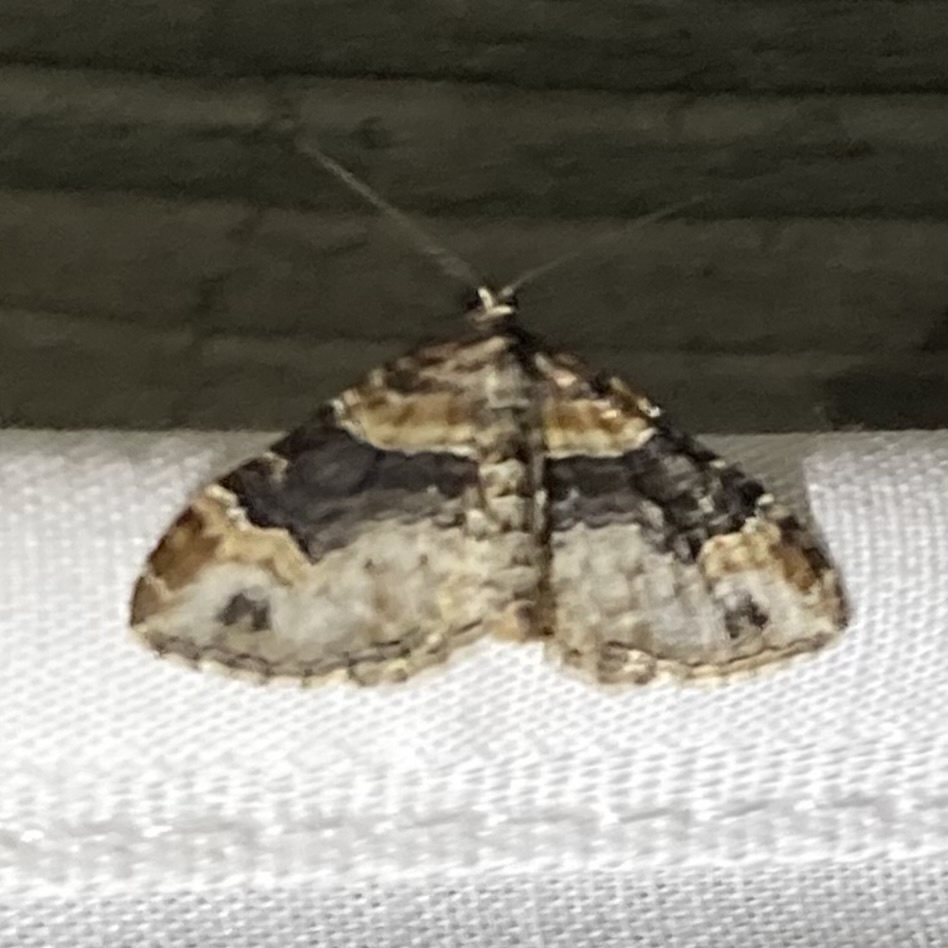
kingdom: Animalia
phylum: Arthropoda
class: Insecta
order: Lepidoptera
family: Geometridae
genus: Xanthorhoe
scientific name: Xanthorhoe ferrugata
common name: Dark-barred twin-spot carpet
